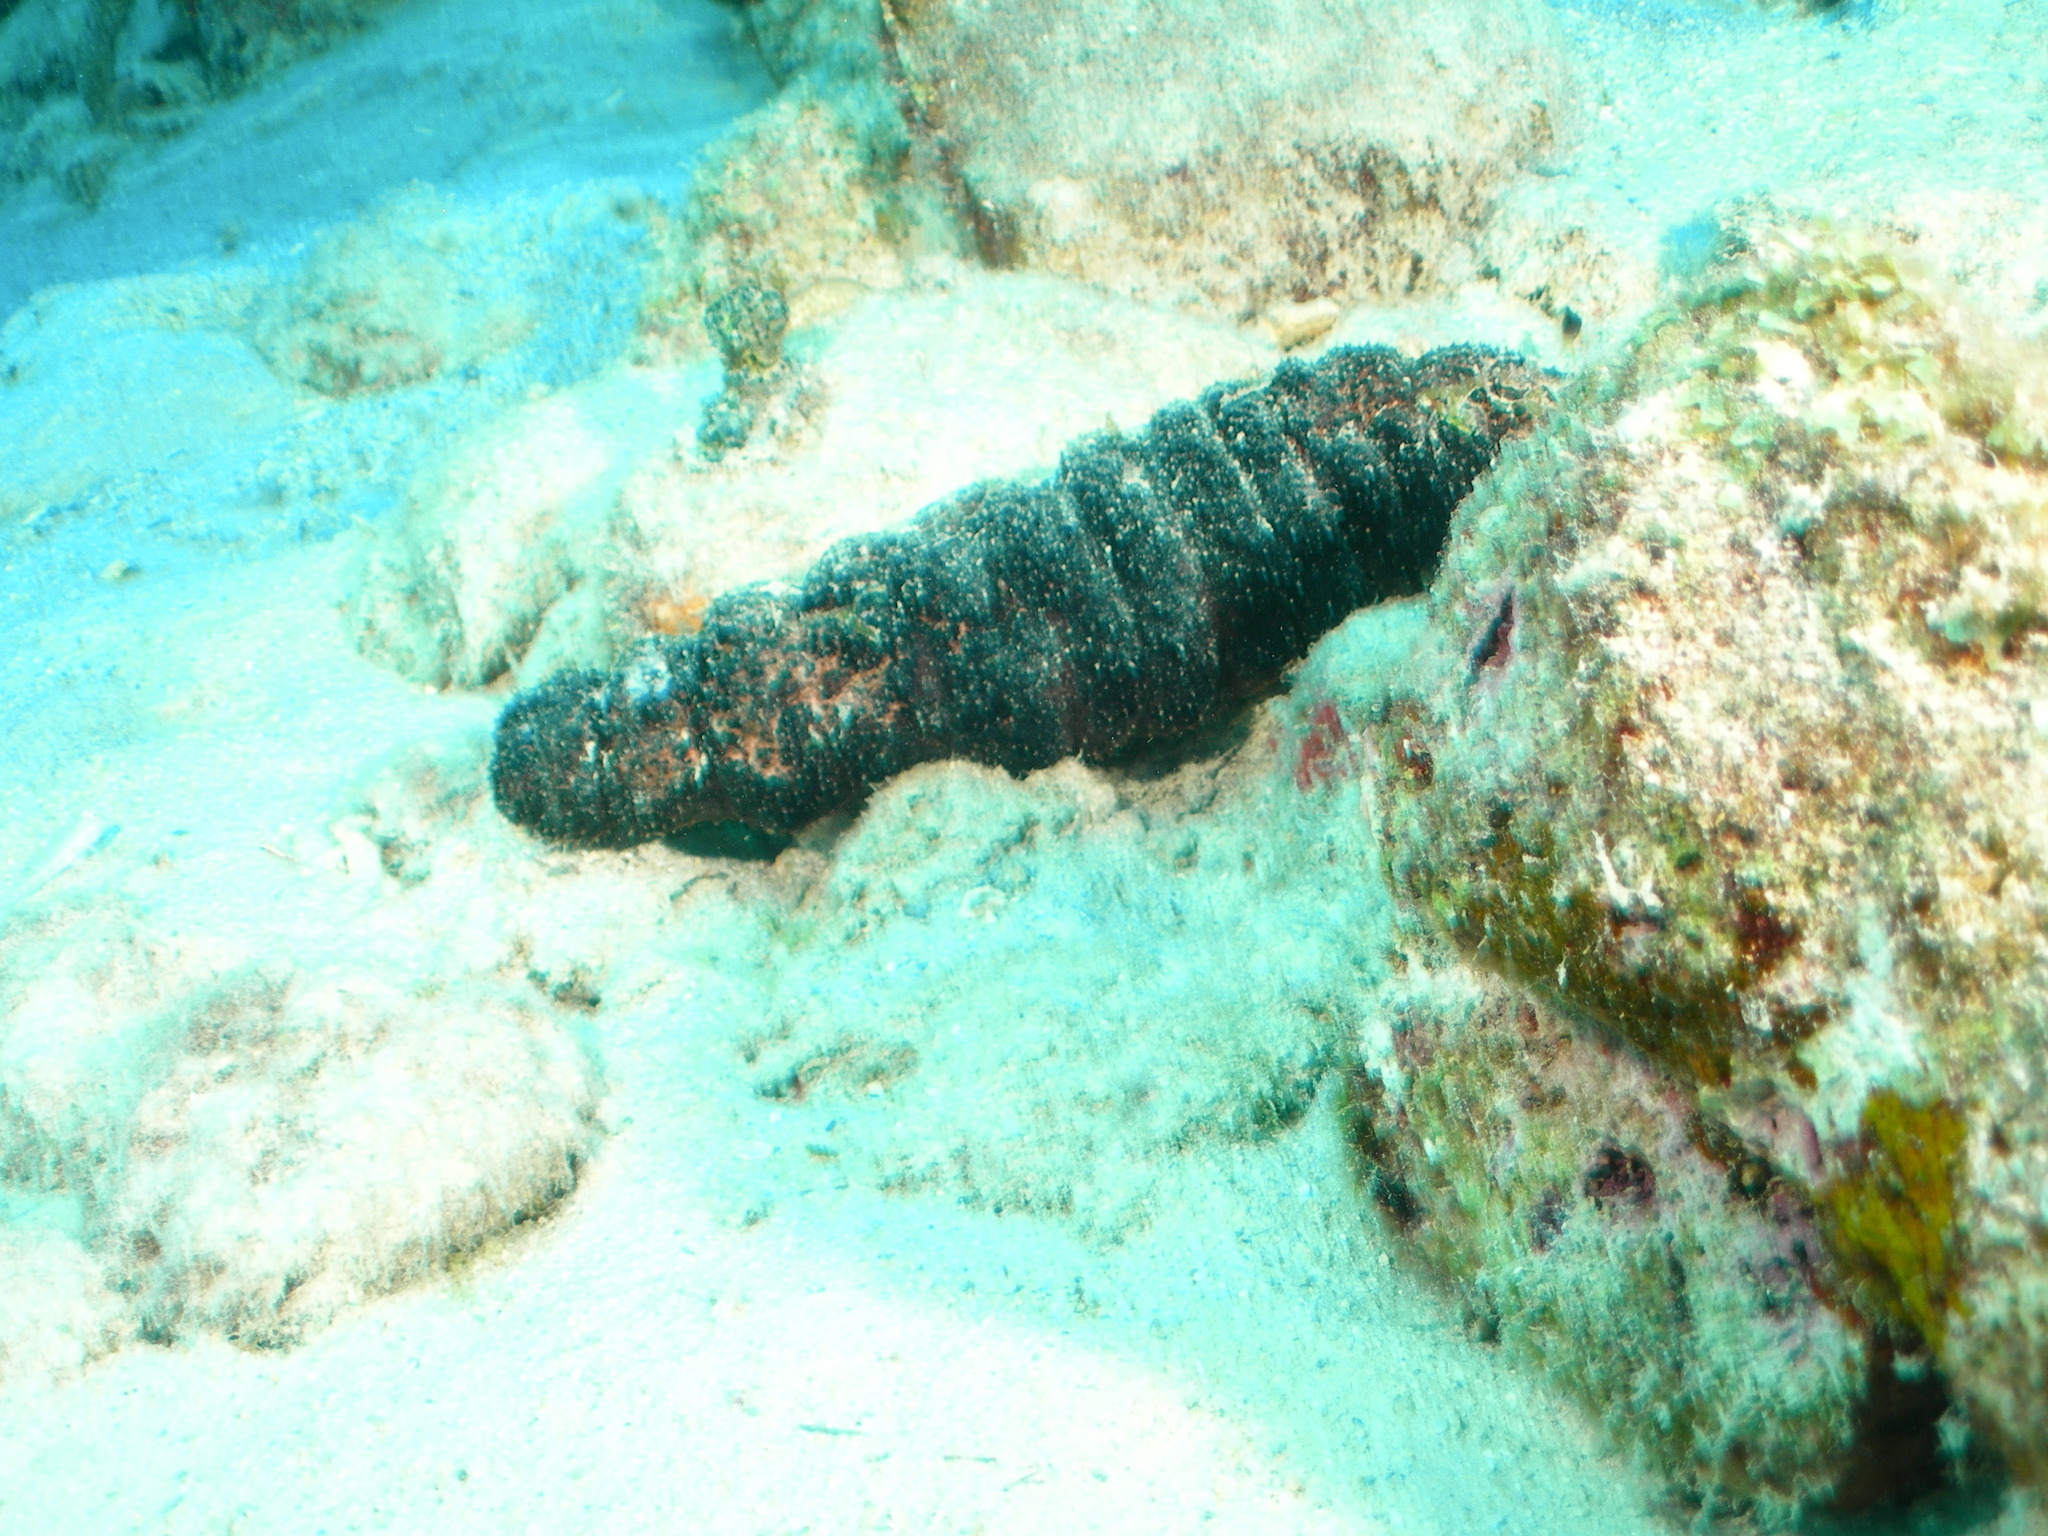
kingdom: Animalia
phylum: Echinodermata
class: Holothuroidea
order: Holothuriida
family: Holothuriidae
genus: Holothuria
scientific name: Holothuria mexicana
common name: Donkey dung sea cucumber
